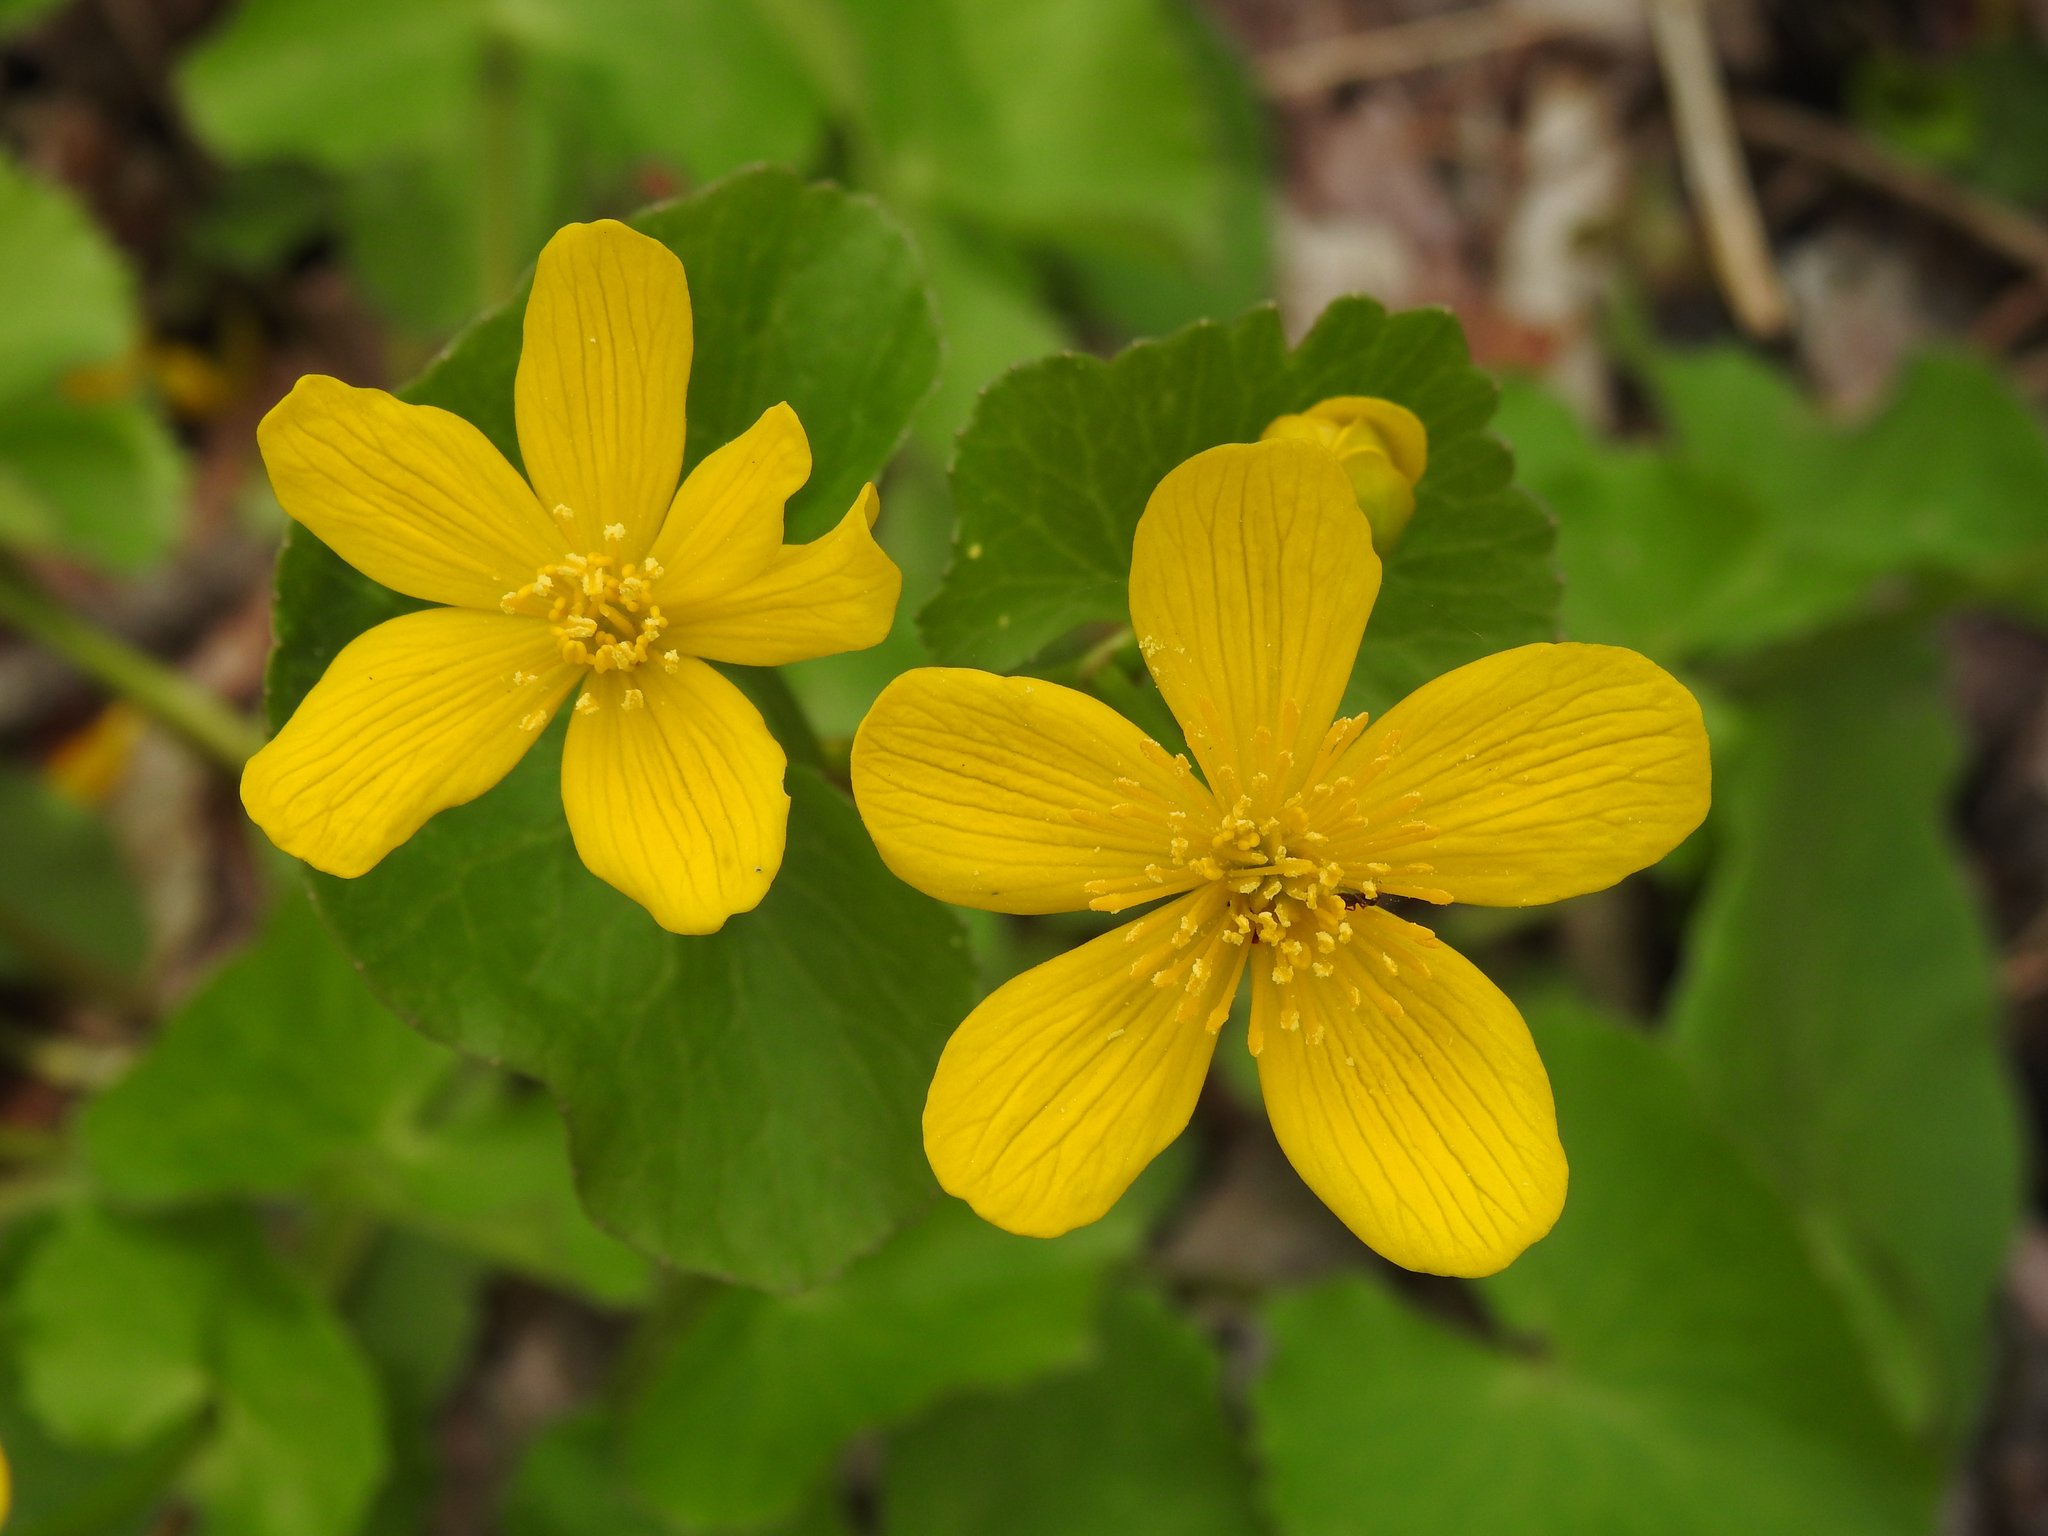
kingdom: Plantae
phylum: Tracheophyta
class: Magnoliopsida
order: Ranunculales
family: Ranunculaceae
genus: Caltha
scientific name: Caltha palustris
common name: Marsh marigold
